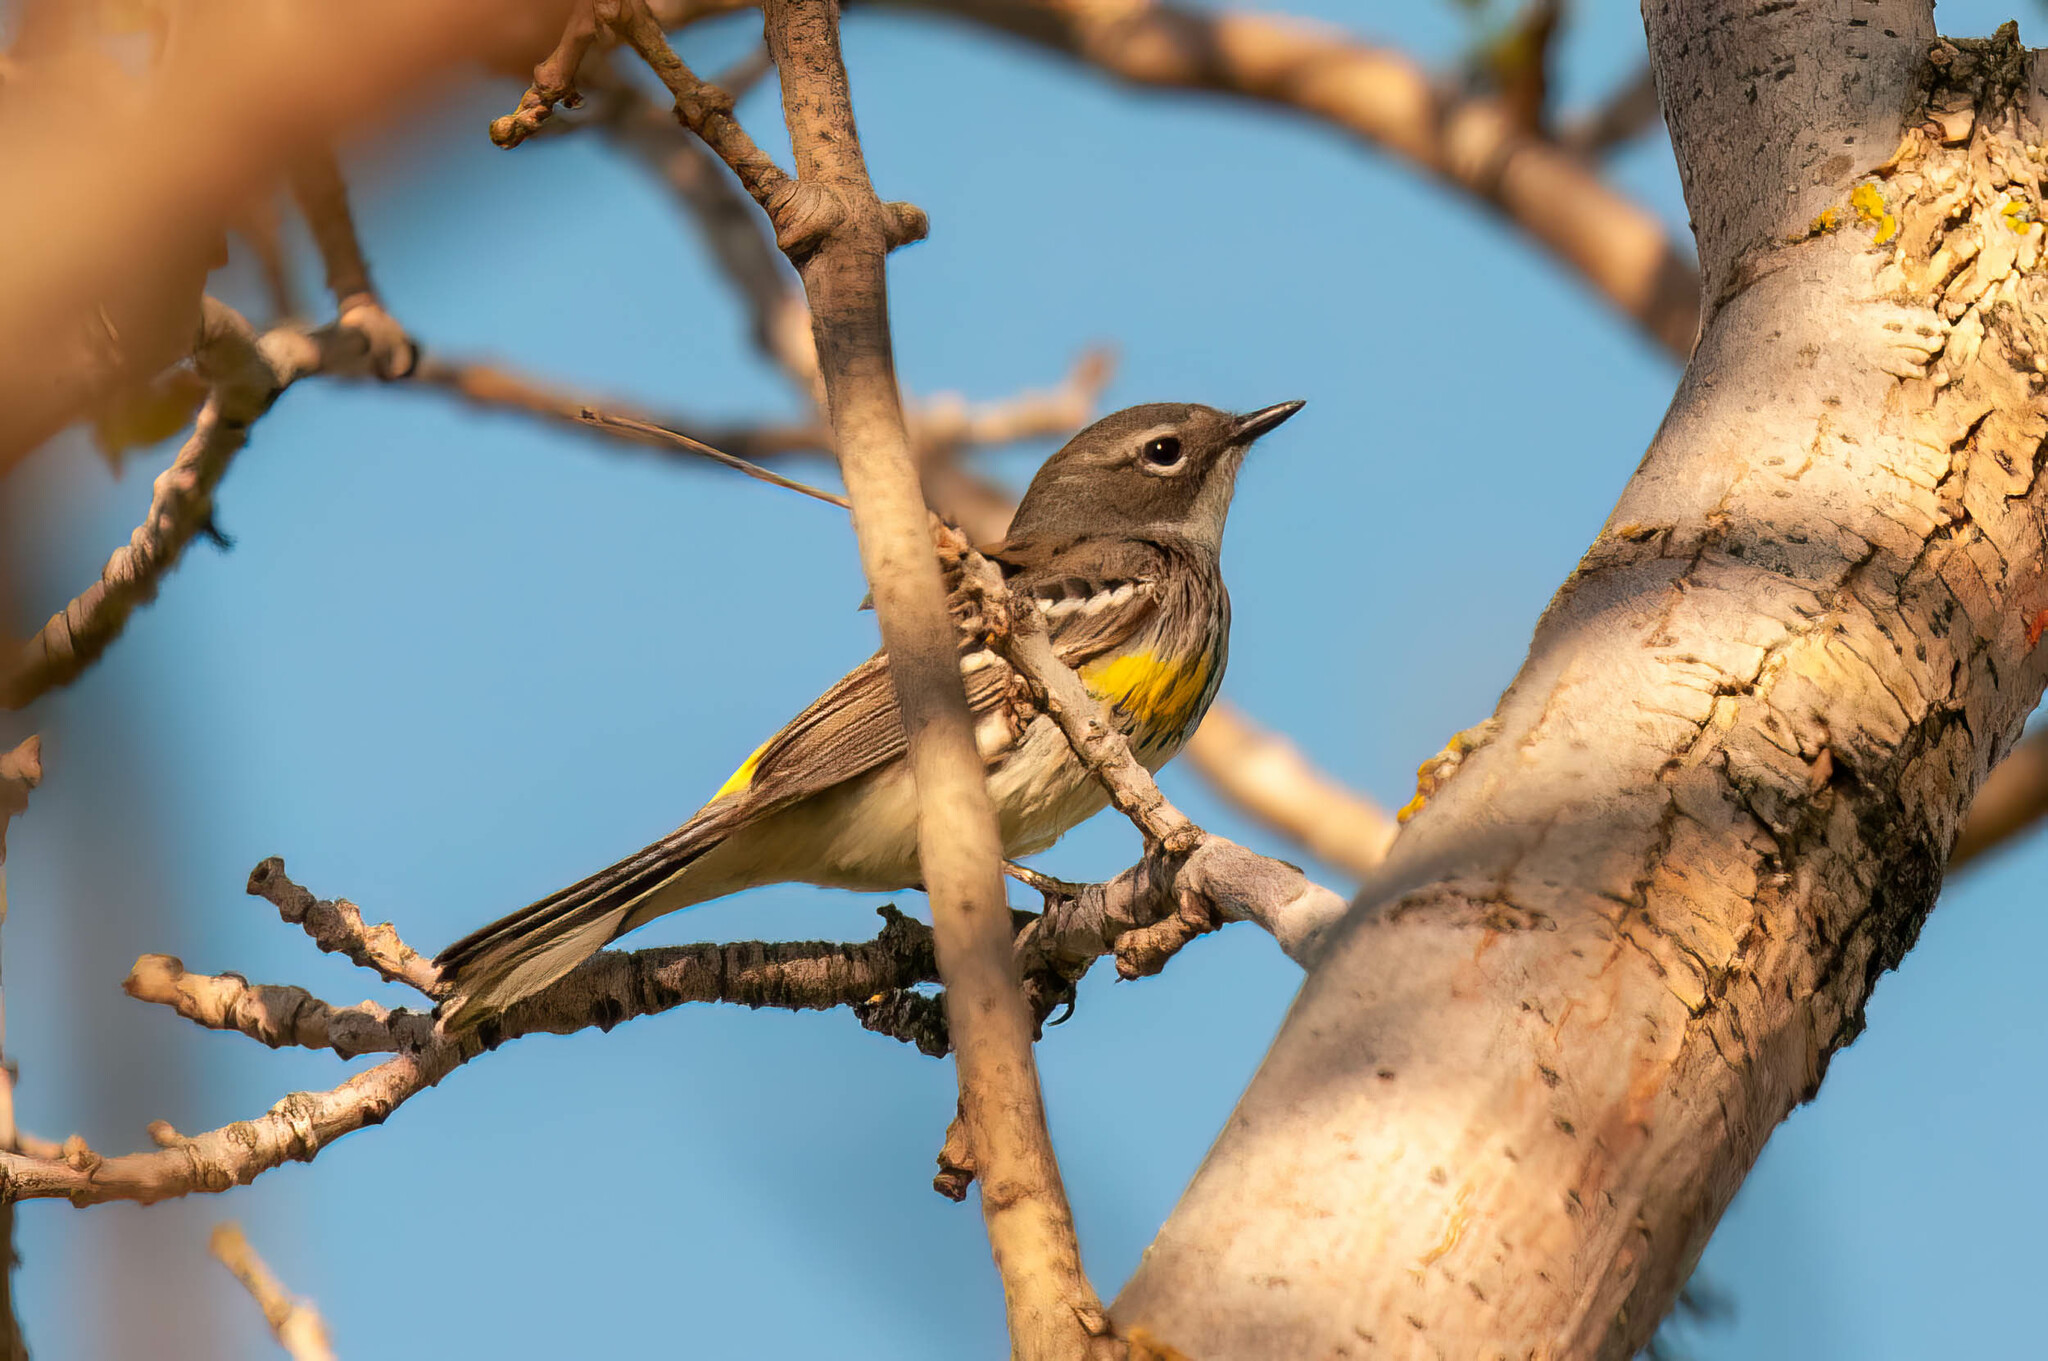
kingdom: Animalia
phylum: Chordata
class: Aves
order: Passeriformes
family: Parulidae
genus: Setophaga
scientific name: Setophaga coronata
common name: Myrtle warbler
